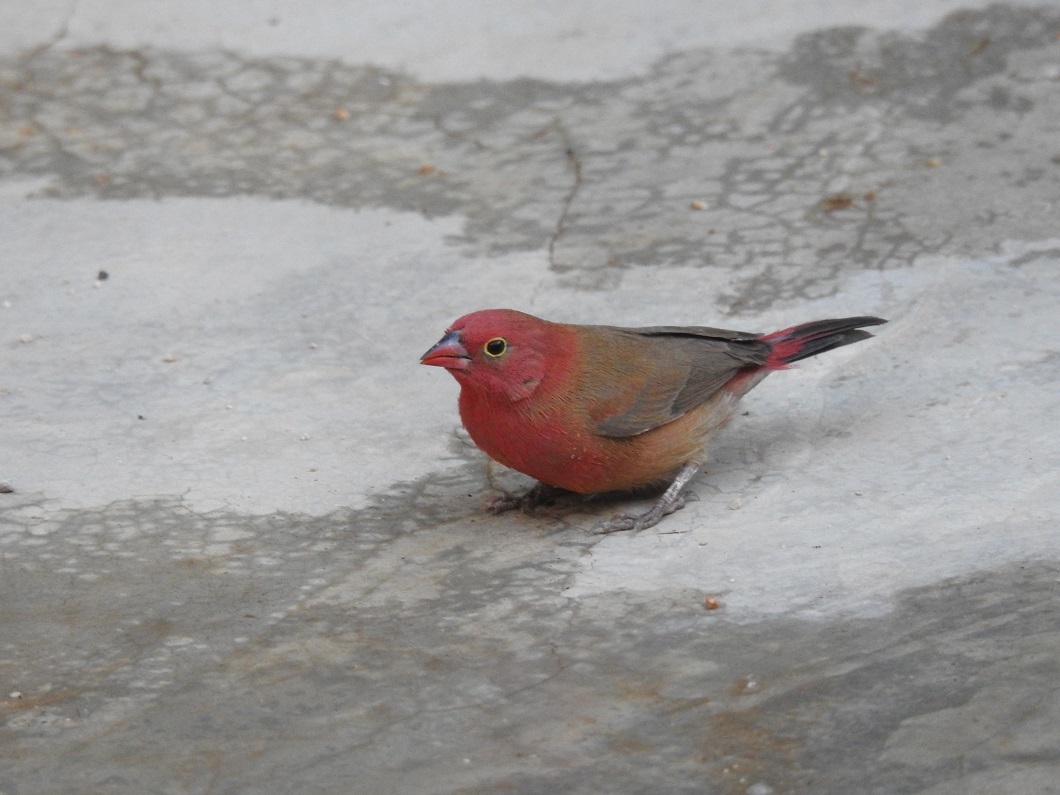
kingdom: Animalia
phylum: Chordata
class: Aves
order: Passeriformes
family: Estrildidae
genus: Lagonosticta
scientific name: Lagonosticta senegala
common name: Red-billed firefinch
